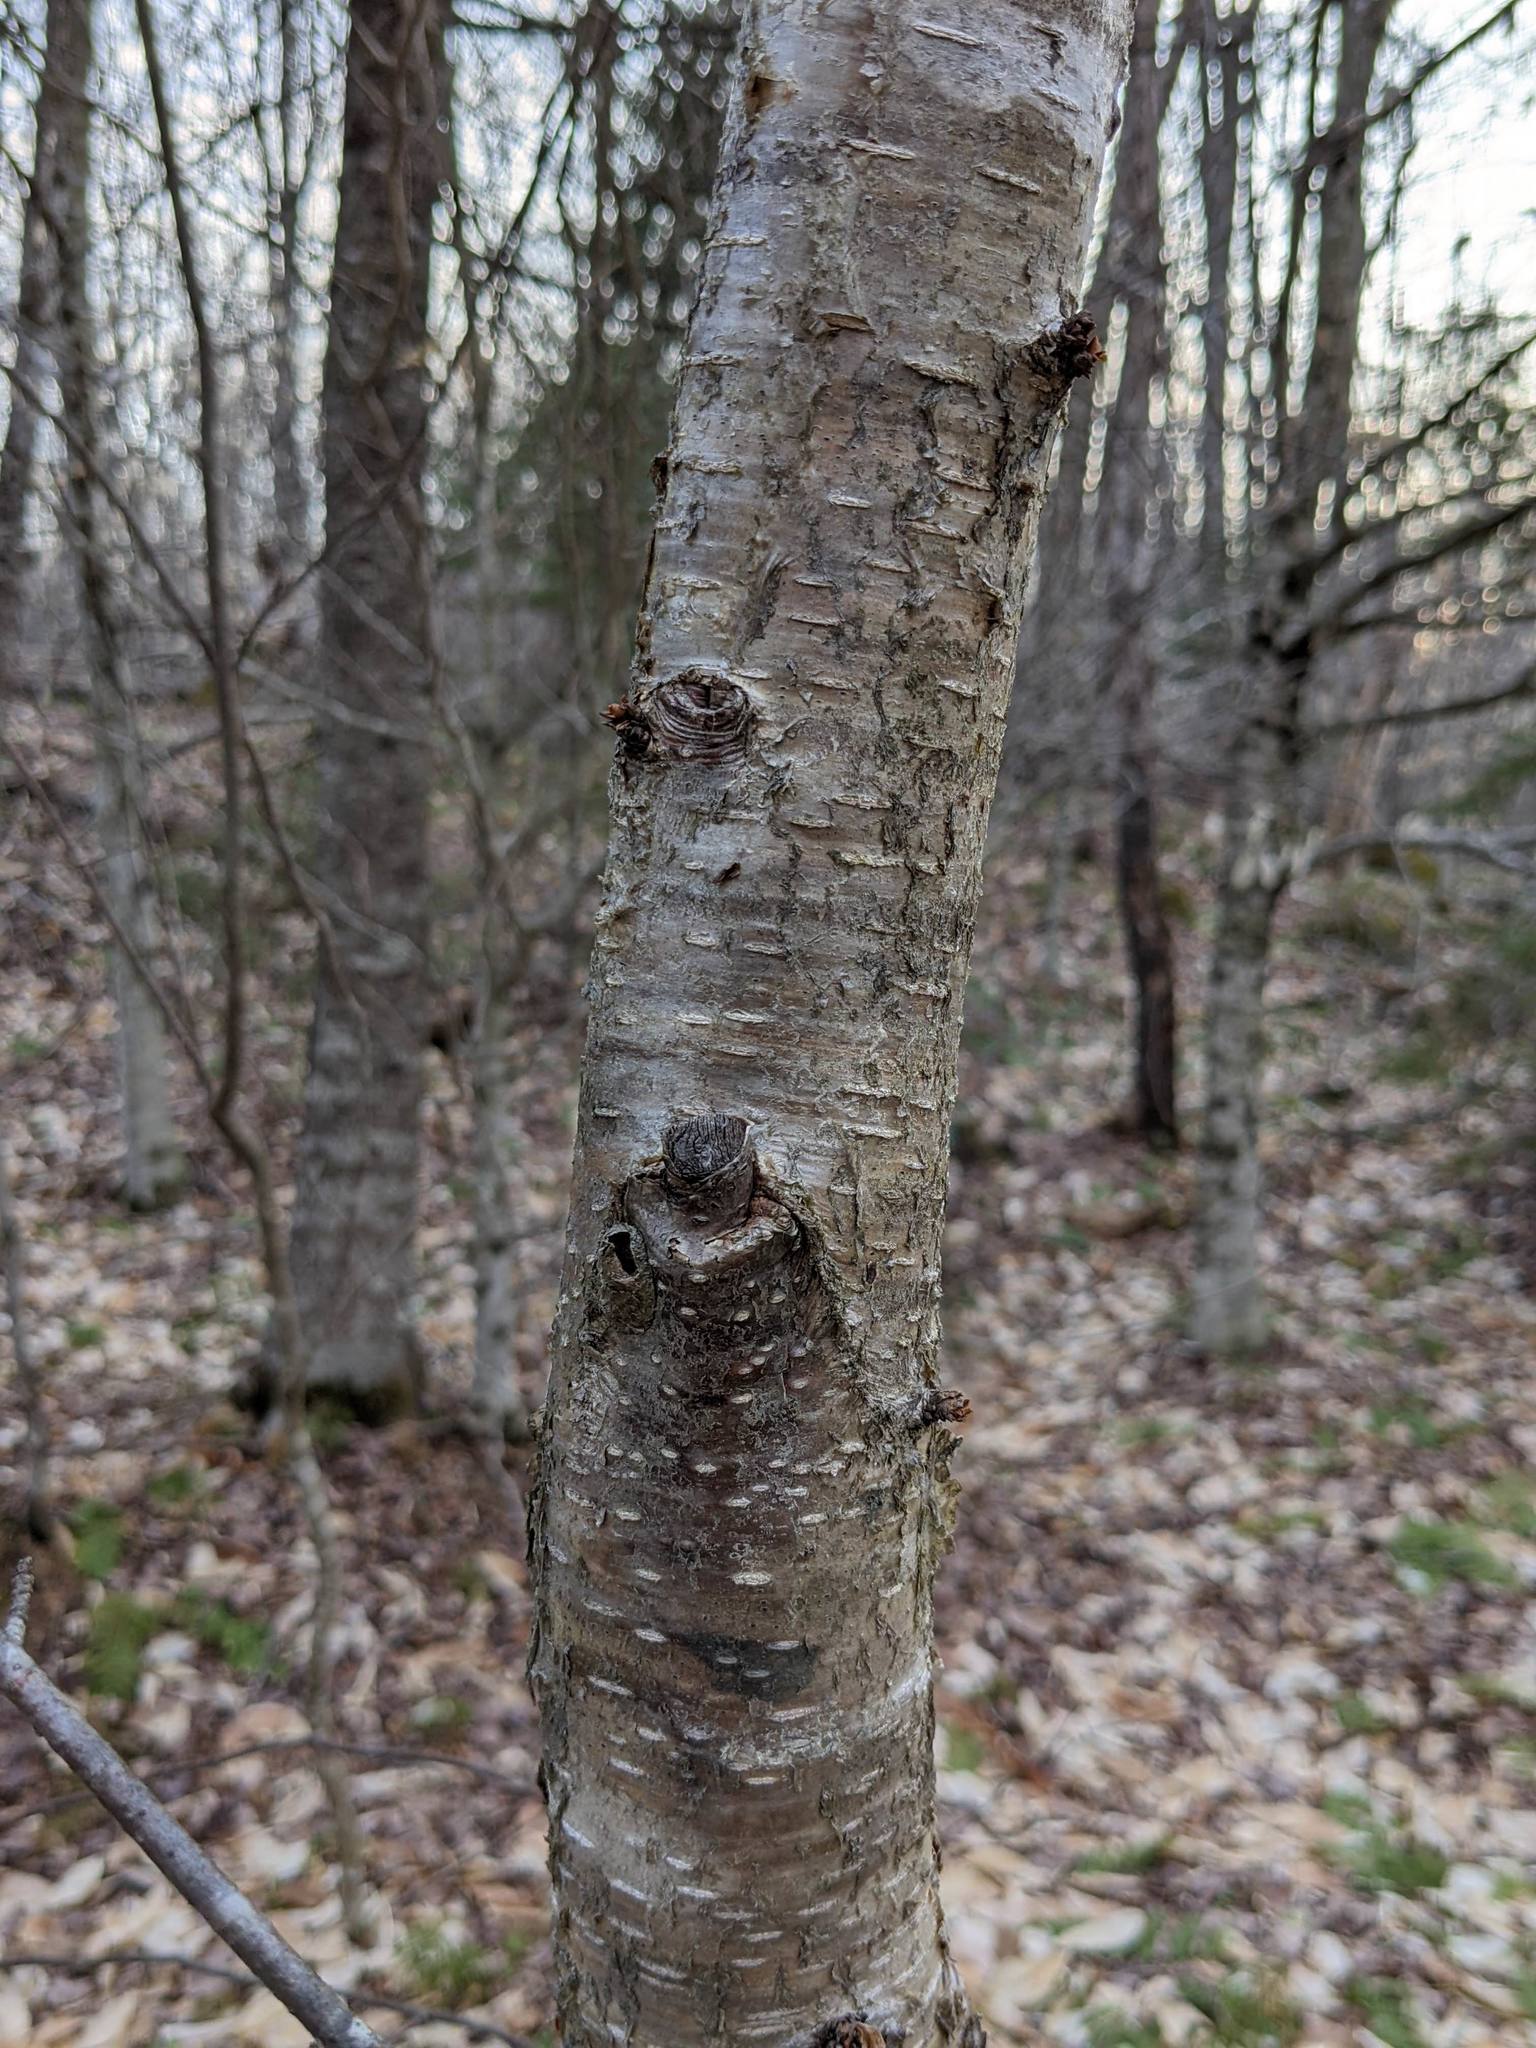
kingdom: Plantae
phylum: Tracheophyta
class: Magnoliopsida
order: Fagales
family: Betulaceae
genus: Betula
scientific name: Betula alleghaniensis
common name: Yellow birch
